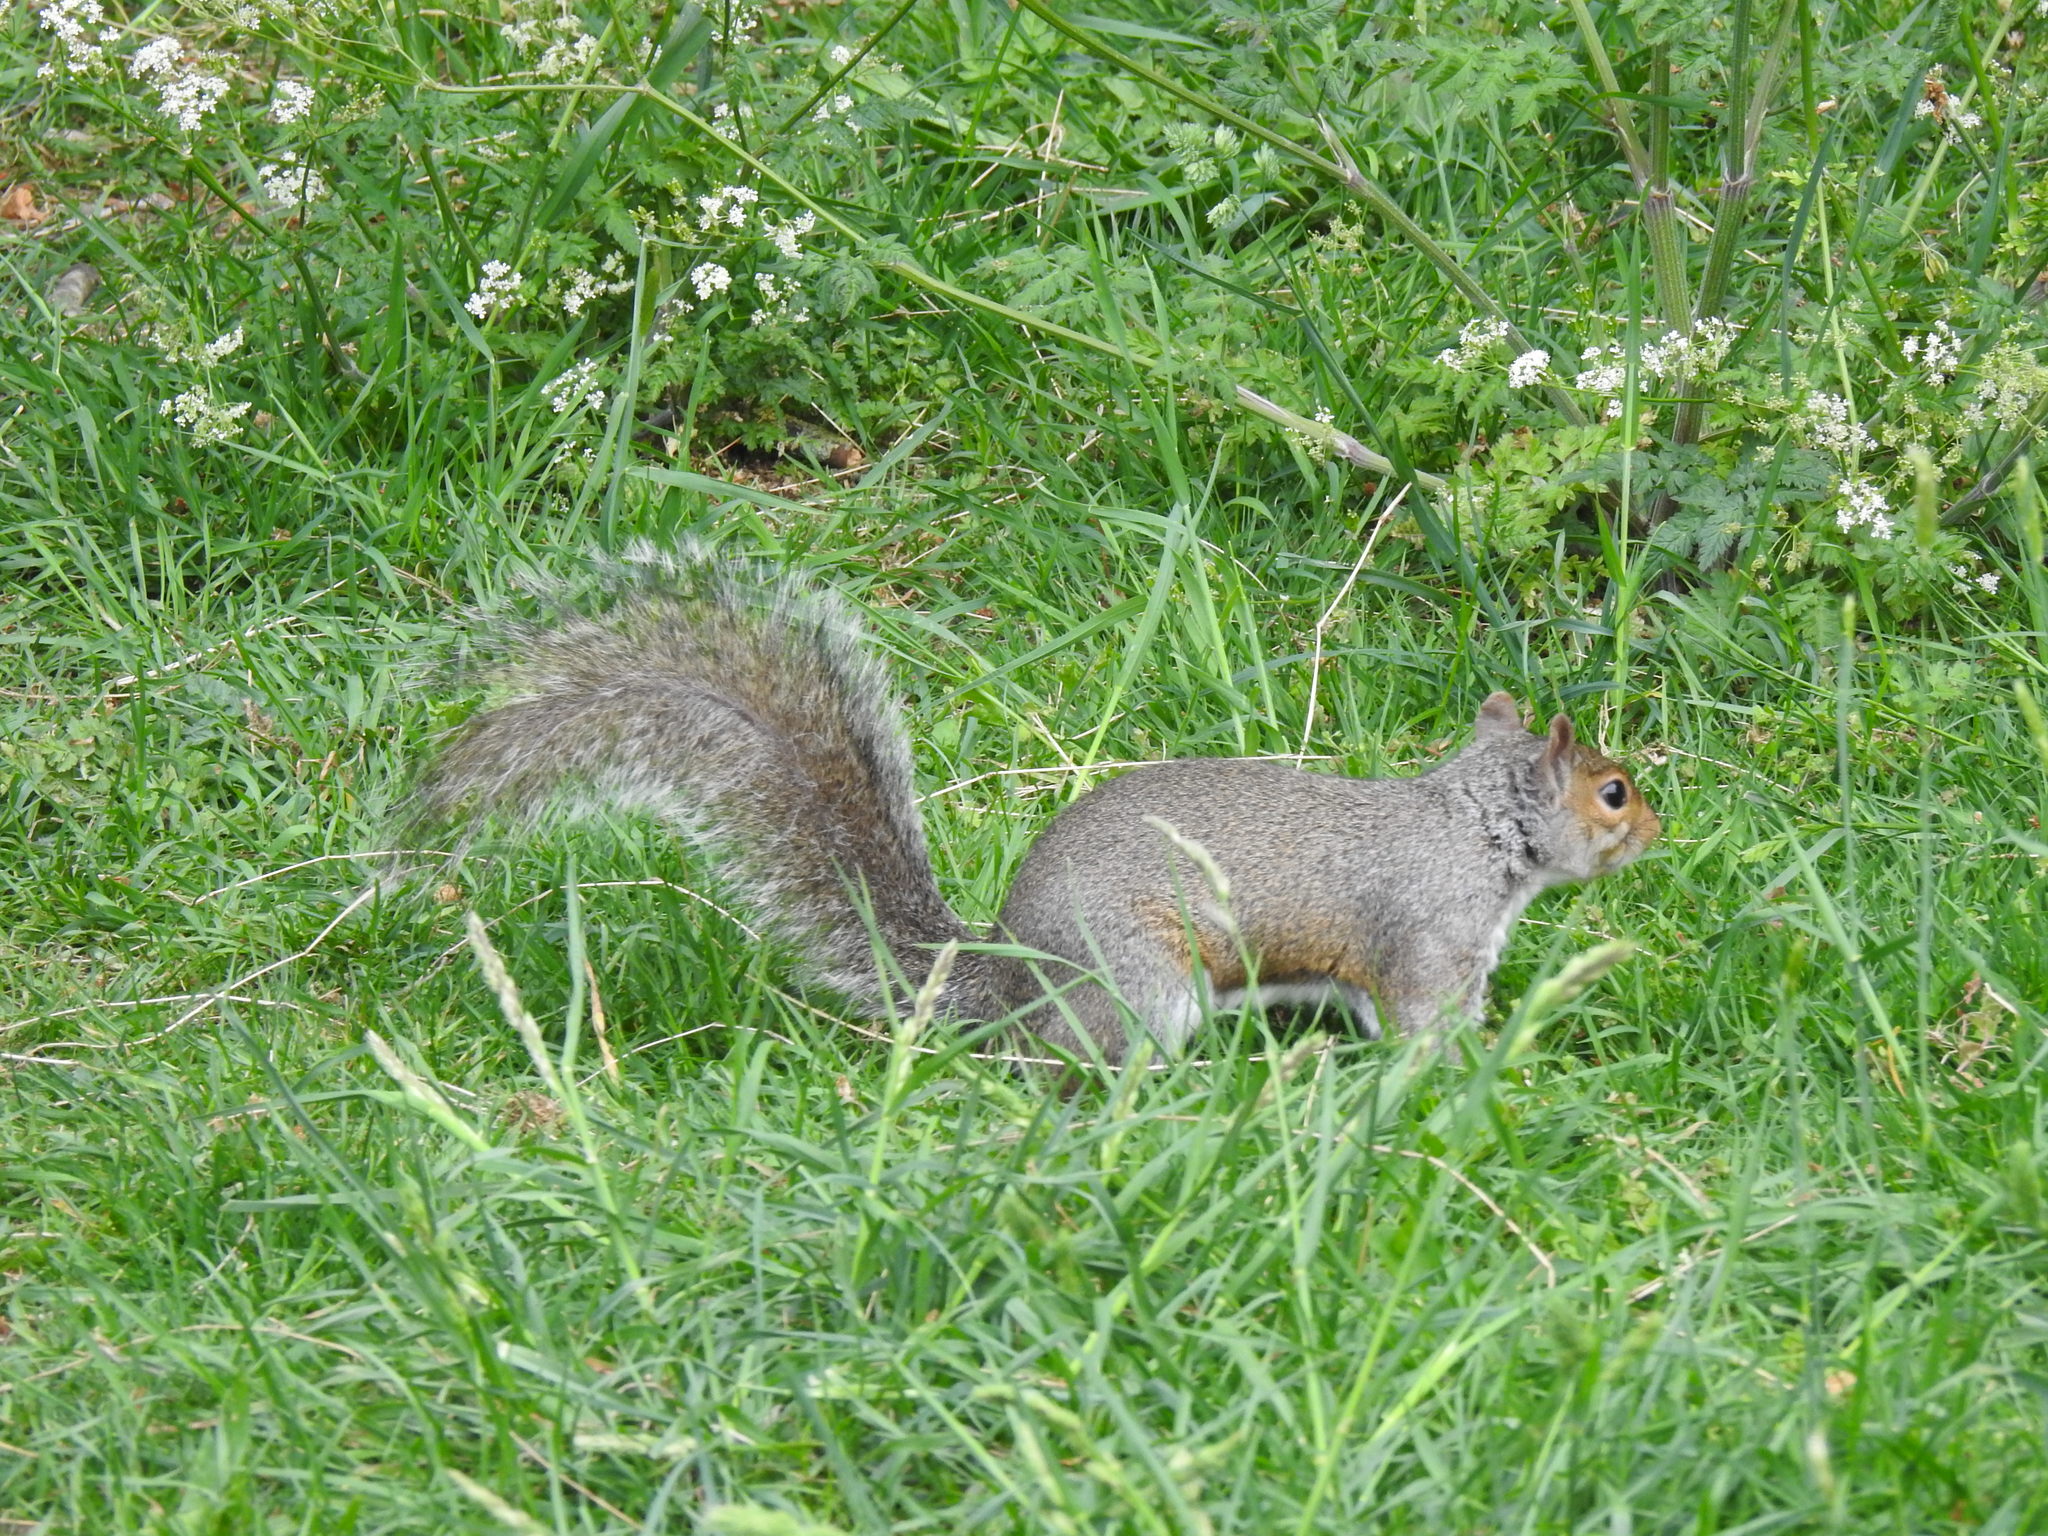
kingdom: Animalia
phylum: Chordata
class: Mammalia
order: Rodentia
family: Sciuridae
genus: Sciurus
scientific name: Sciurus carolinensis
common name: Eastern gray squirrel
